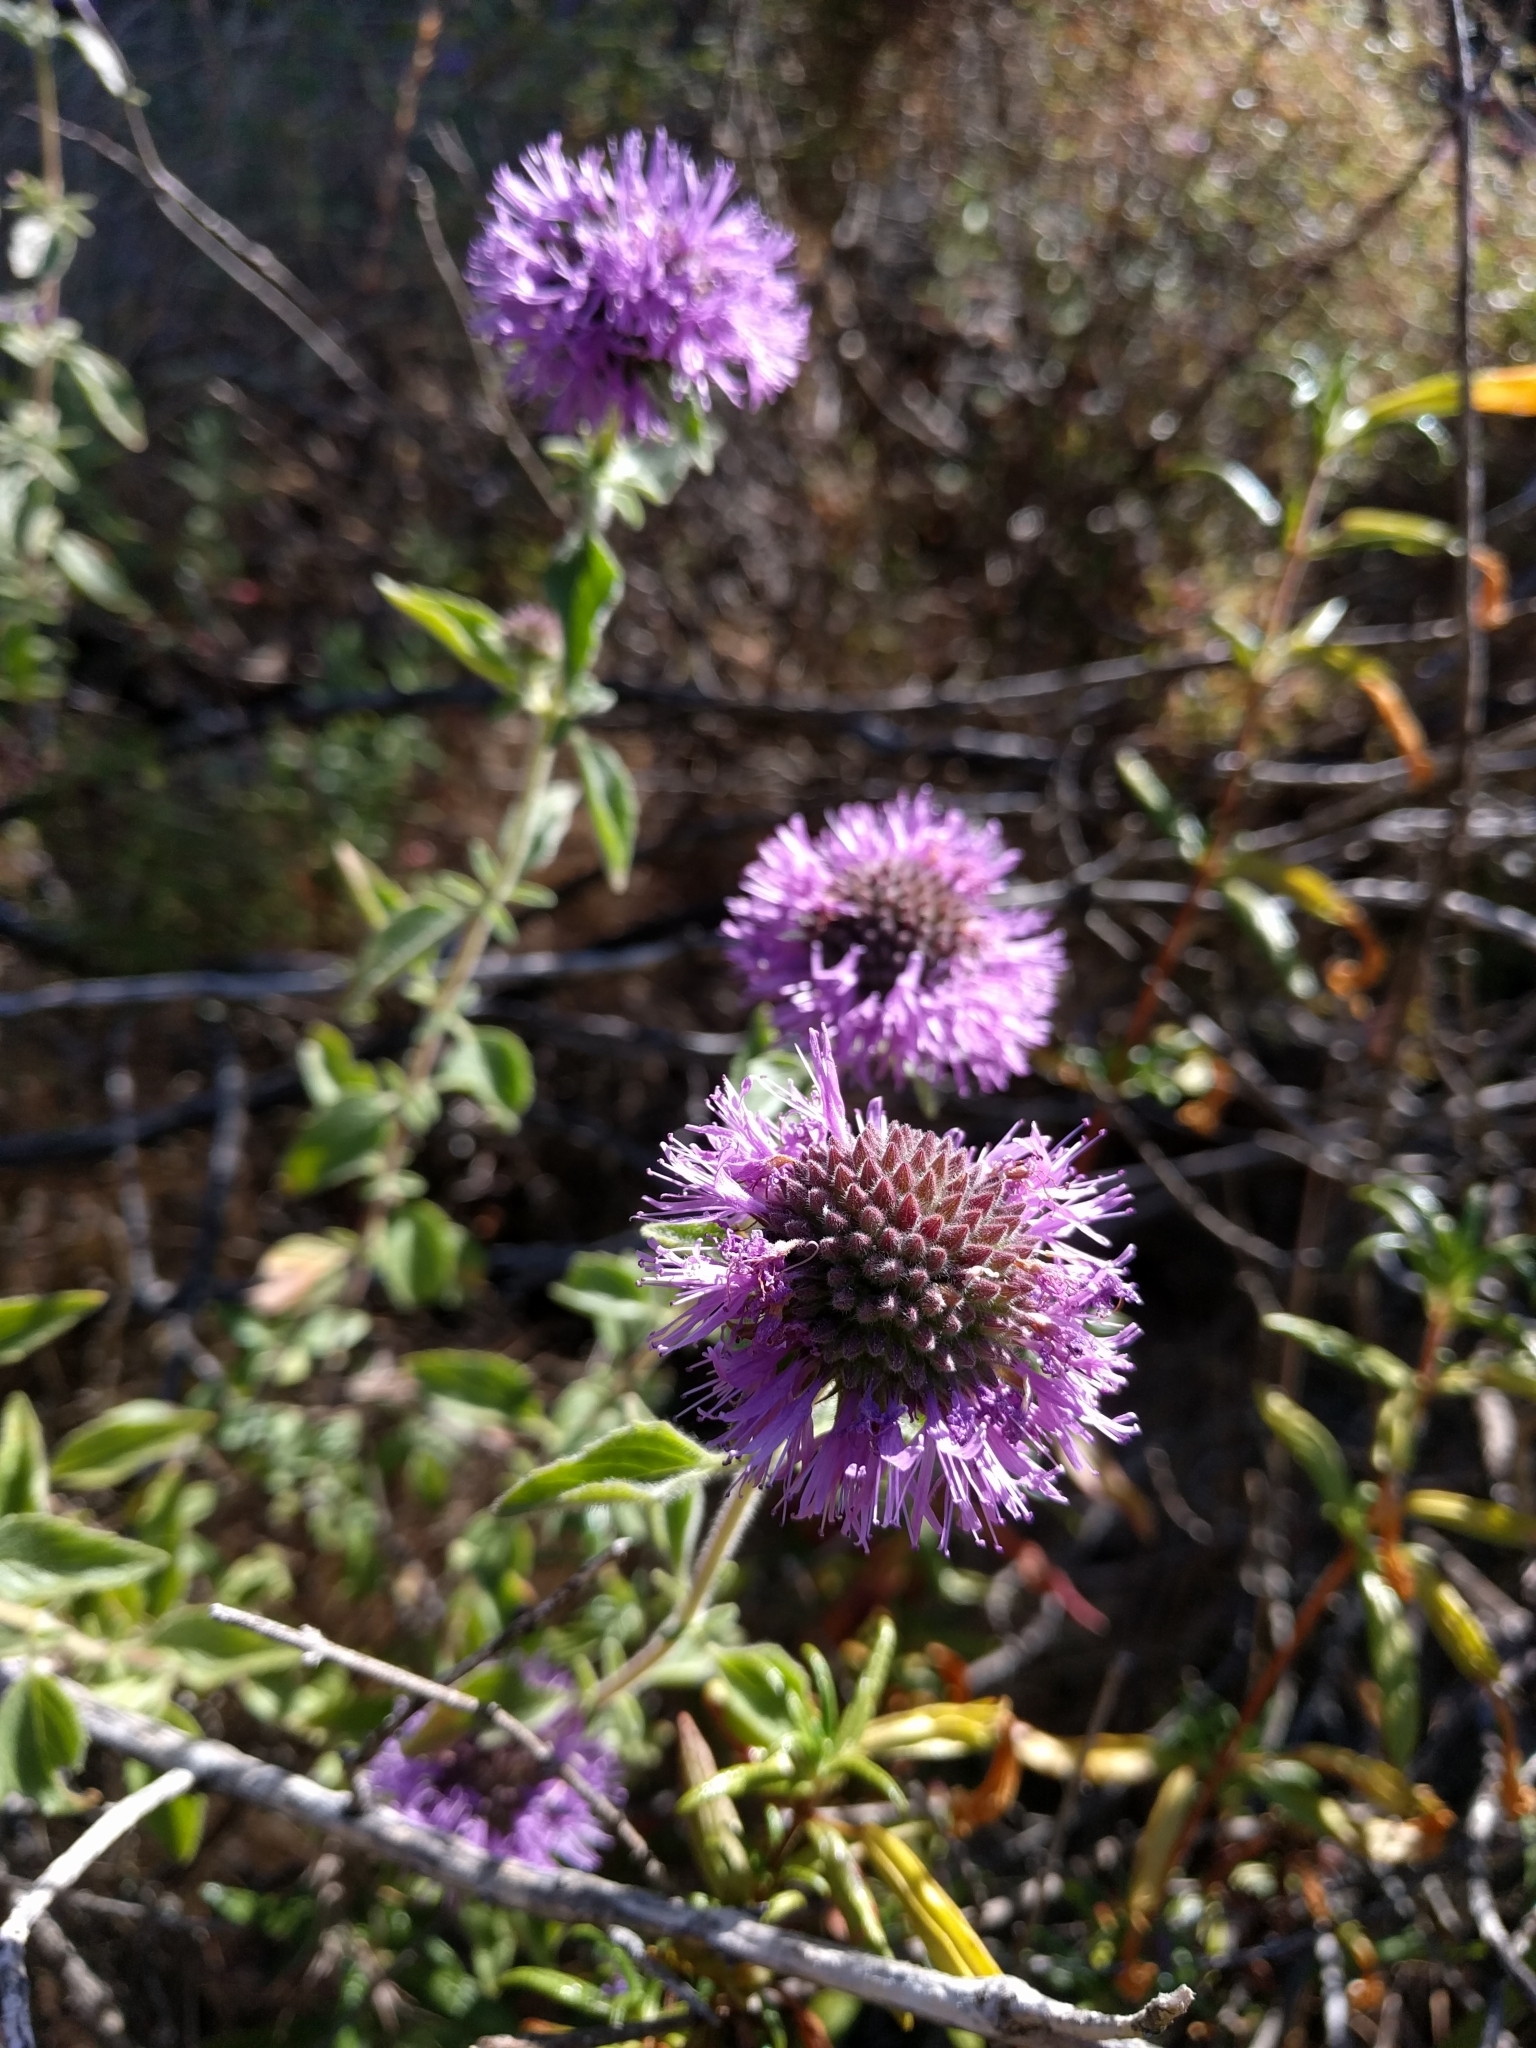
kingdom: Plantae
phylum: Tracheophyta
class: Magnoliopsida
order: Lamiales
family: Lamiaceae
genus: Monardella
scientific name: Monardella odoratissima
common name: Pacific monardella
